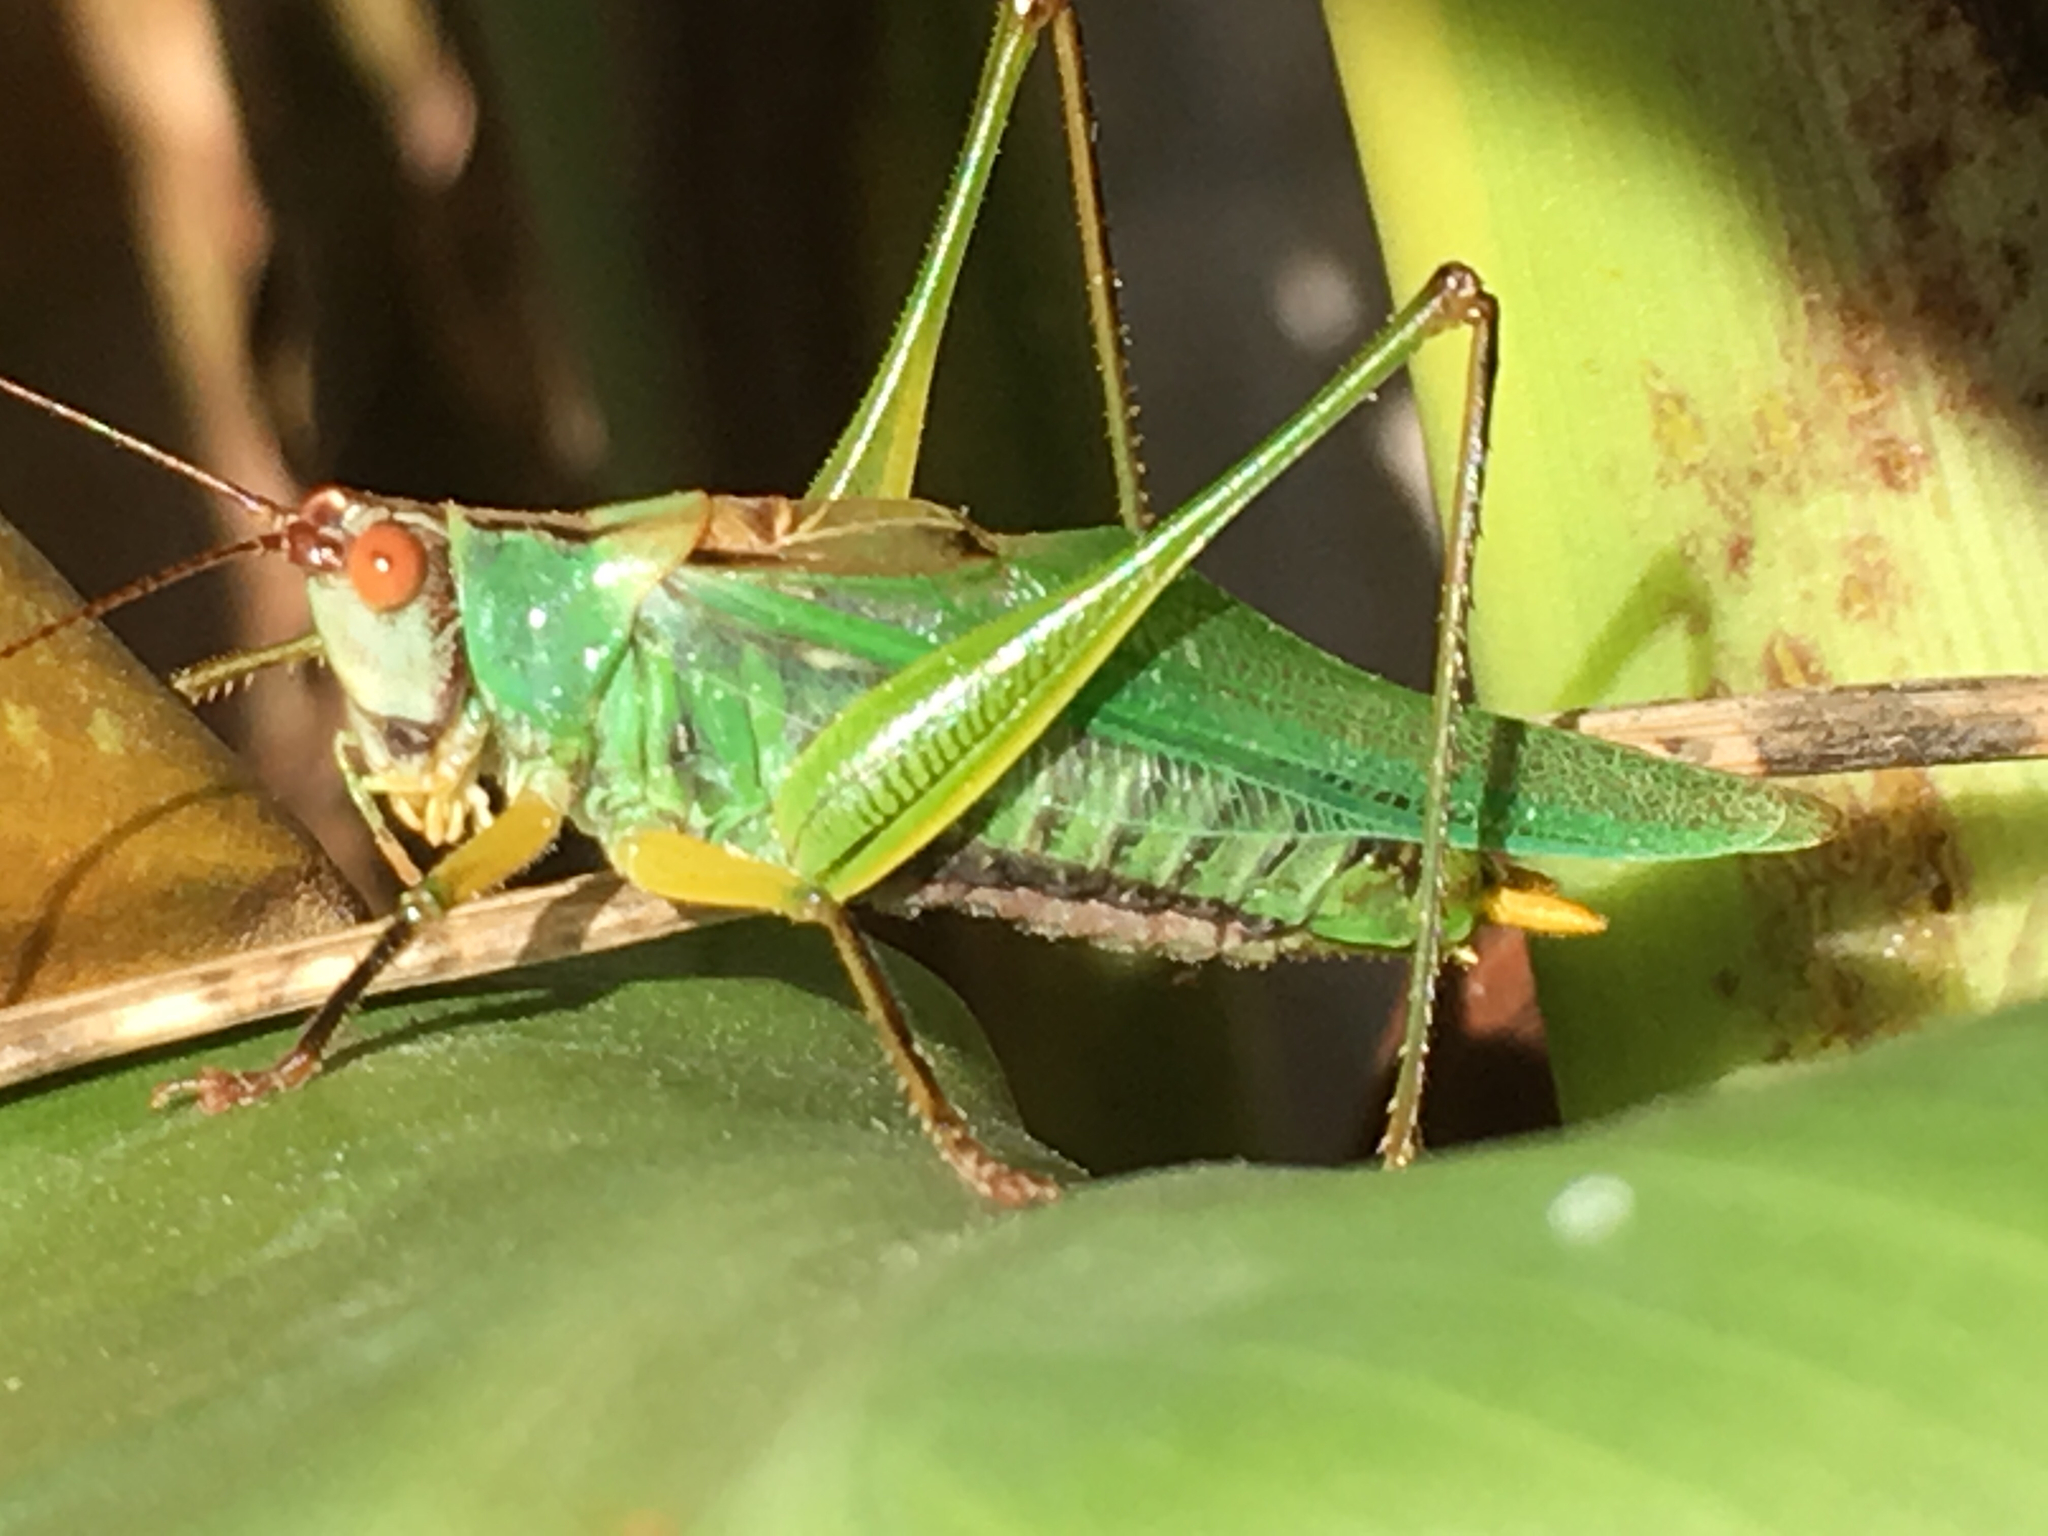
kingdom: Animalia
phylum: Arthropoda
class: Insecta
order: Orthoptera
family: Tettigoniidae
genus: Orchelimum
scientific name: Orchelimum nigripes
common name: Black-legged meadow katydid
